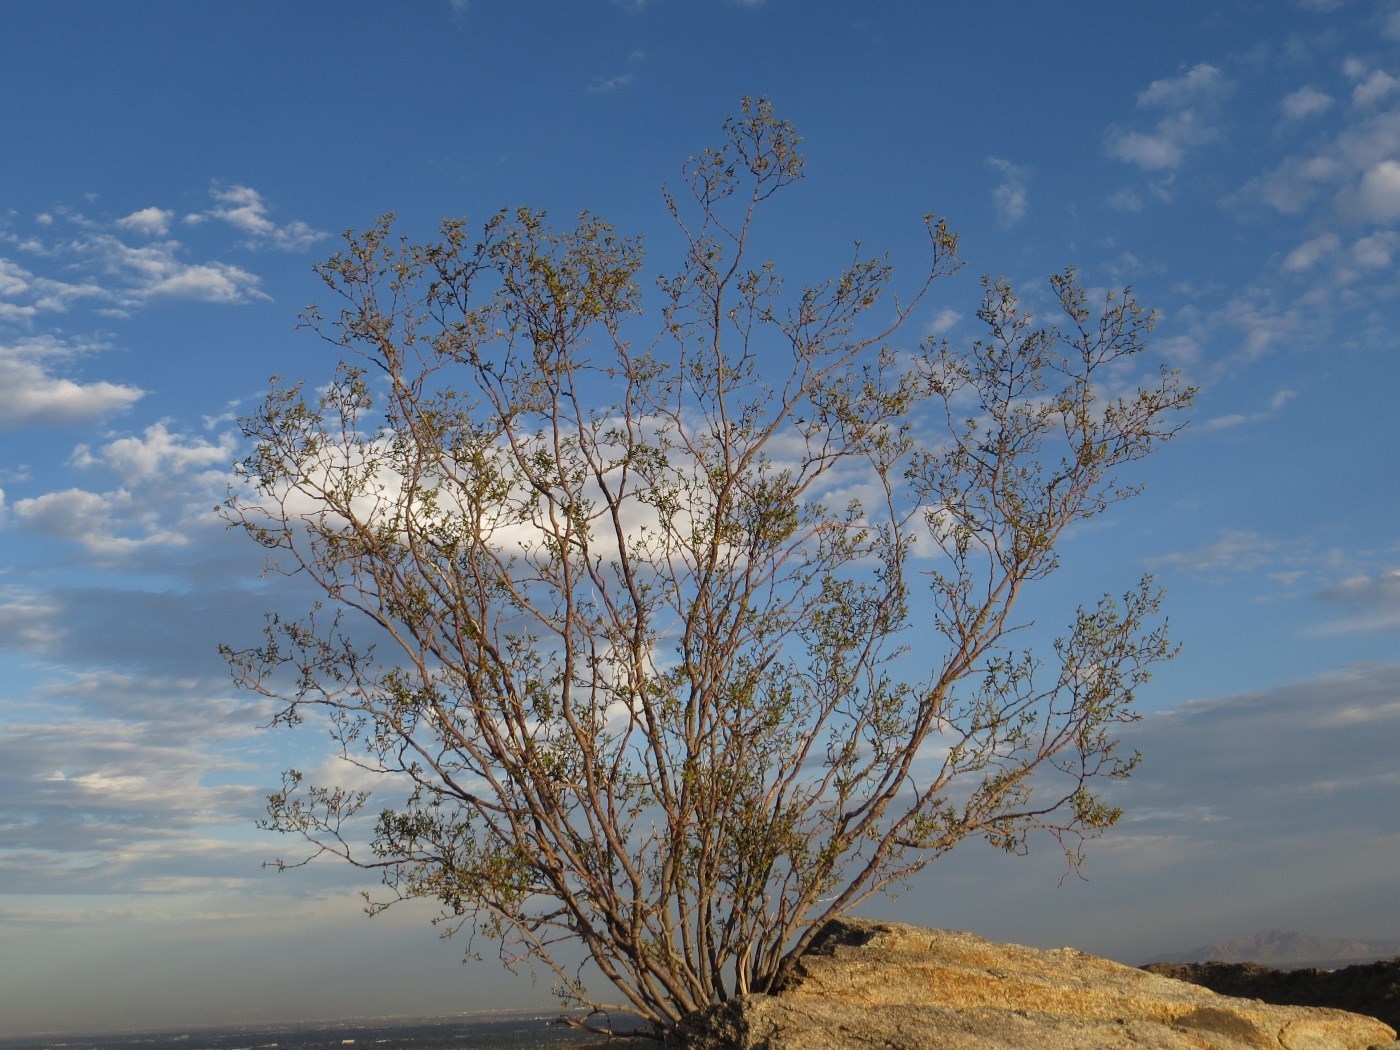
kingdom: Plantae
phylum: Tracheophyta
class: Magnoliopsida
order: Zygophyllales
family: Zygophyllaceae
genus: Larrea
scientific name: Larrea tridentata
